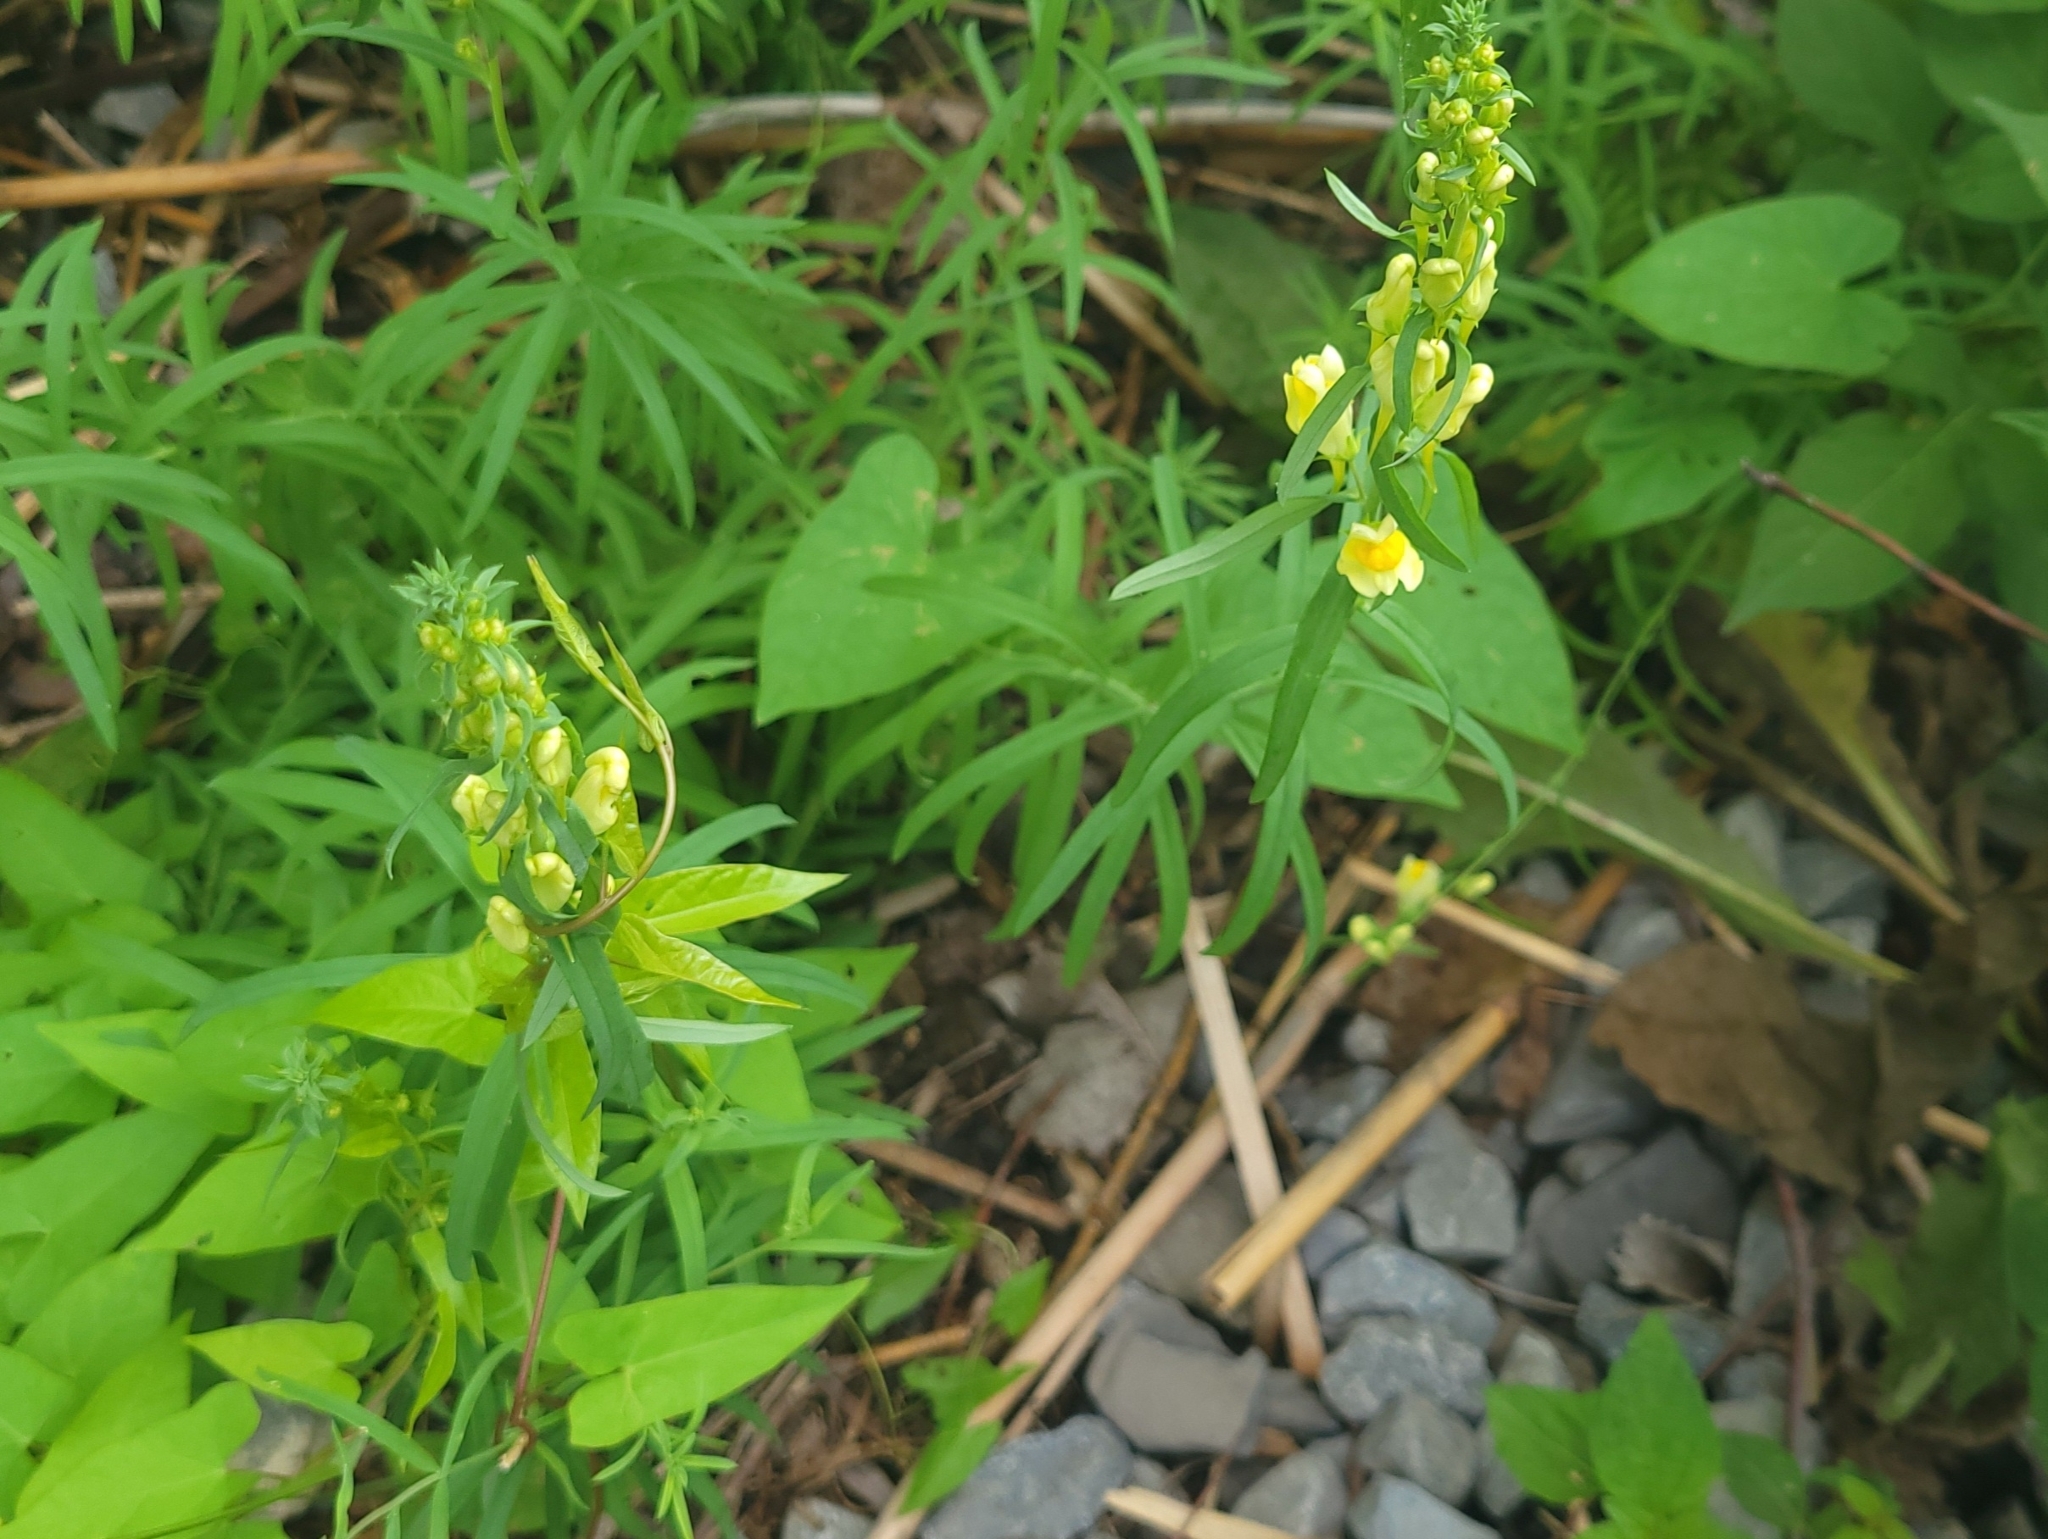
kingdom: Plantae
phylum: Tracheophyta
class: Magnoliopsida
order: Lamiales
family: Plantaginaceae
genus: Linaria
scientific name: Linaria vulgaris
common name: Butter and eggs
